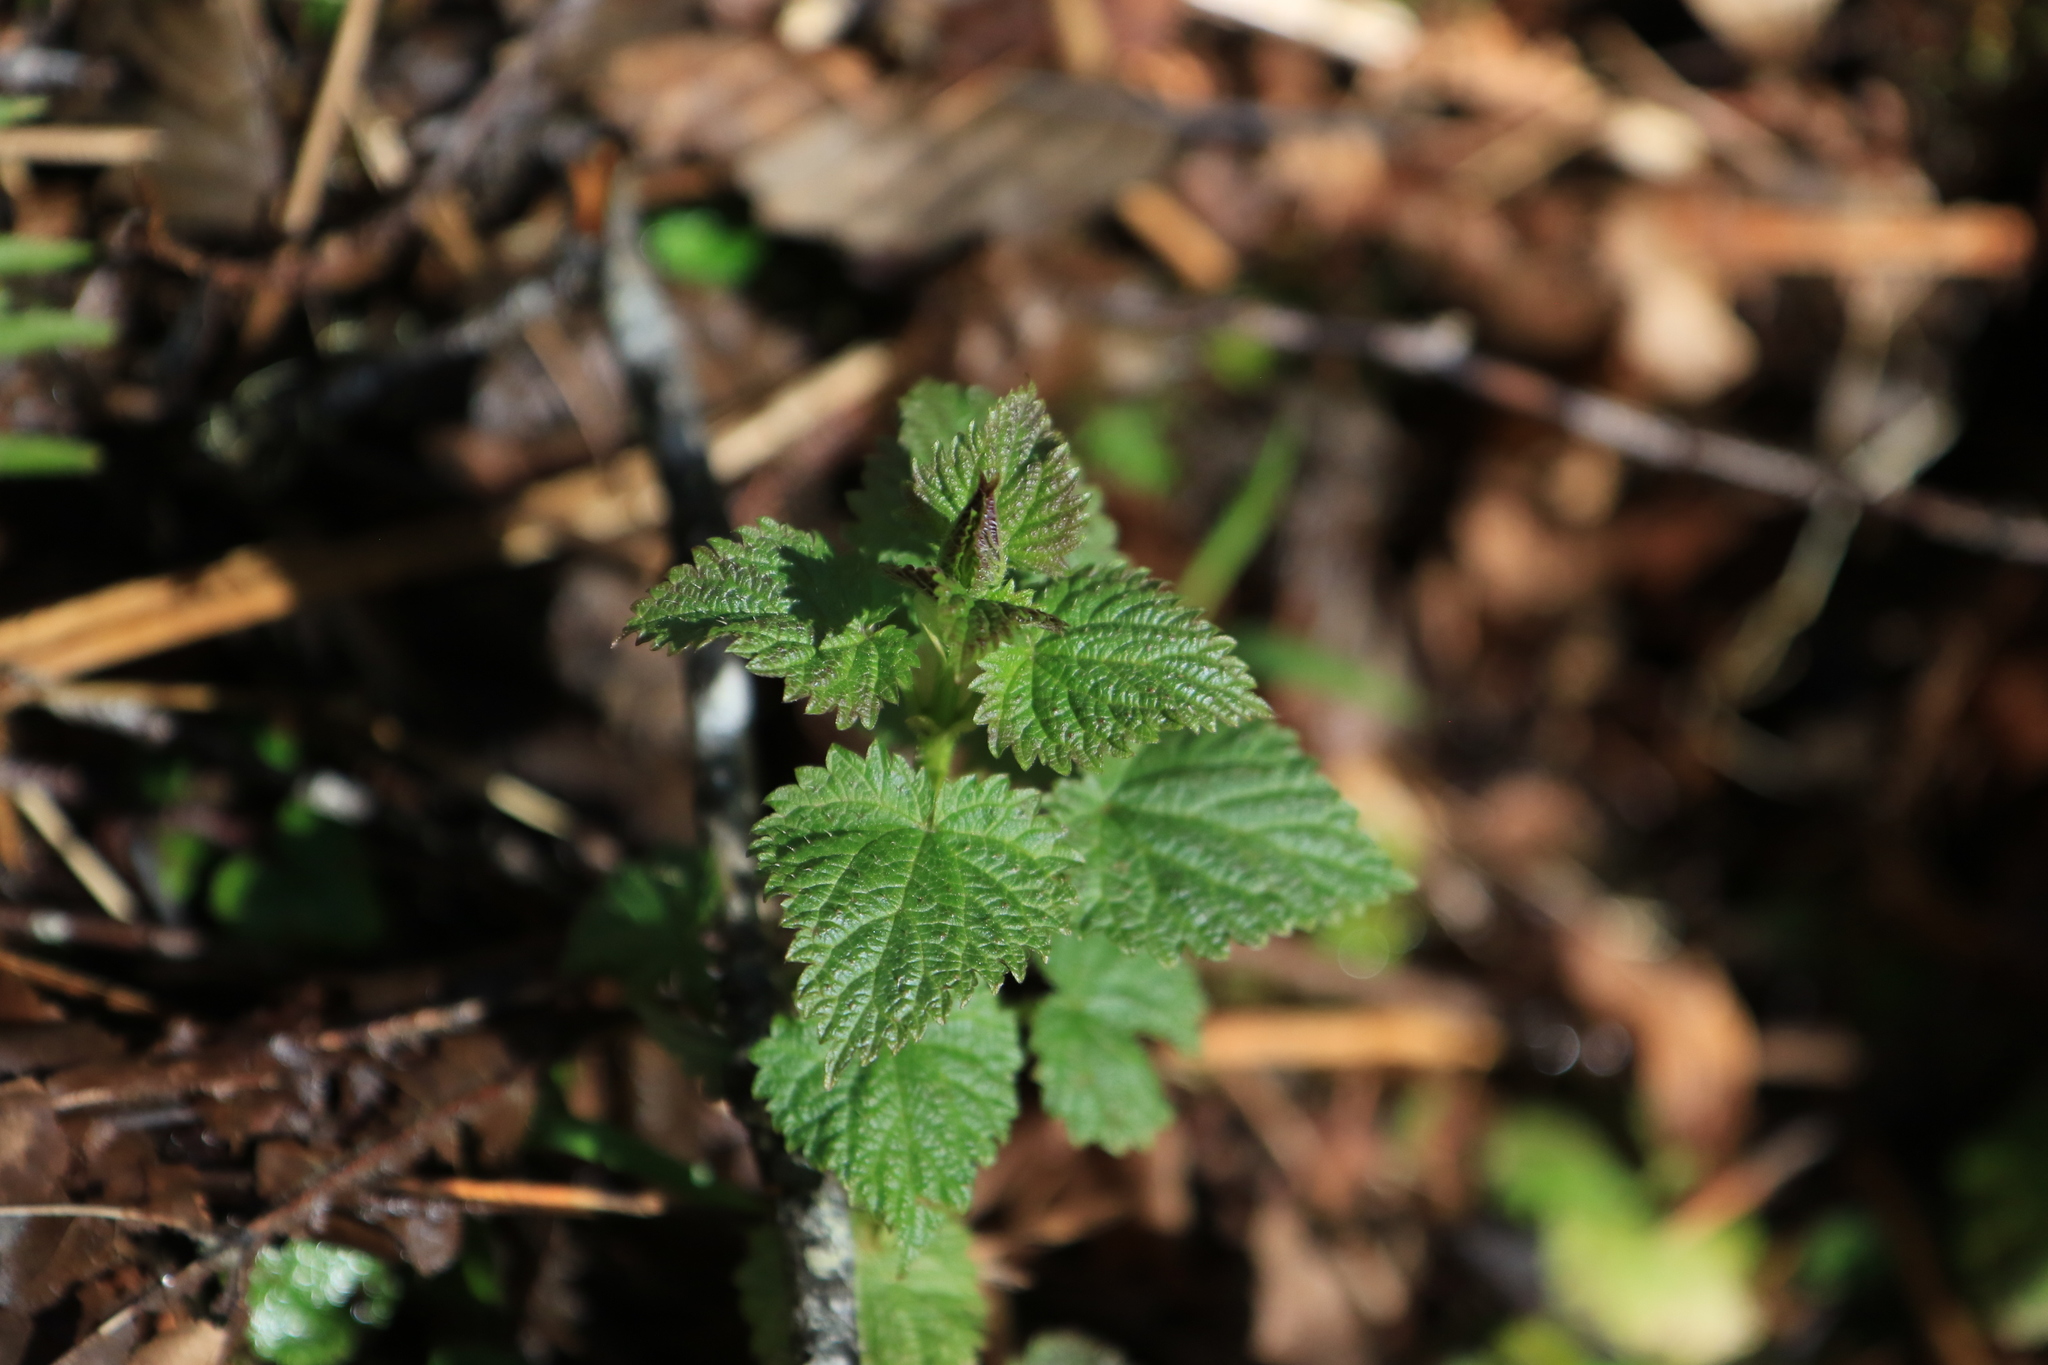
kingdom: Plantae
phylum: Tracheophyta
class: Magnoliopsida
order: Rosales
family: Urticaceae
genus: Urtica
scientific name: Urtica dioica
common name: Common nettle
